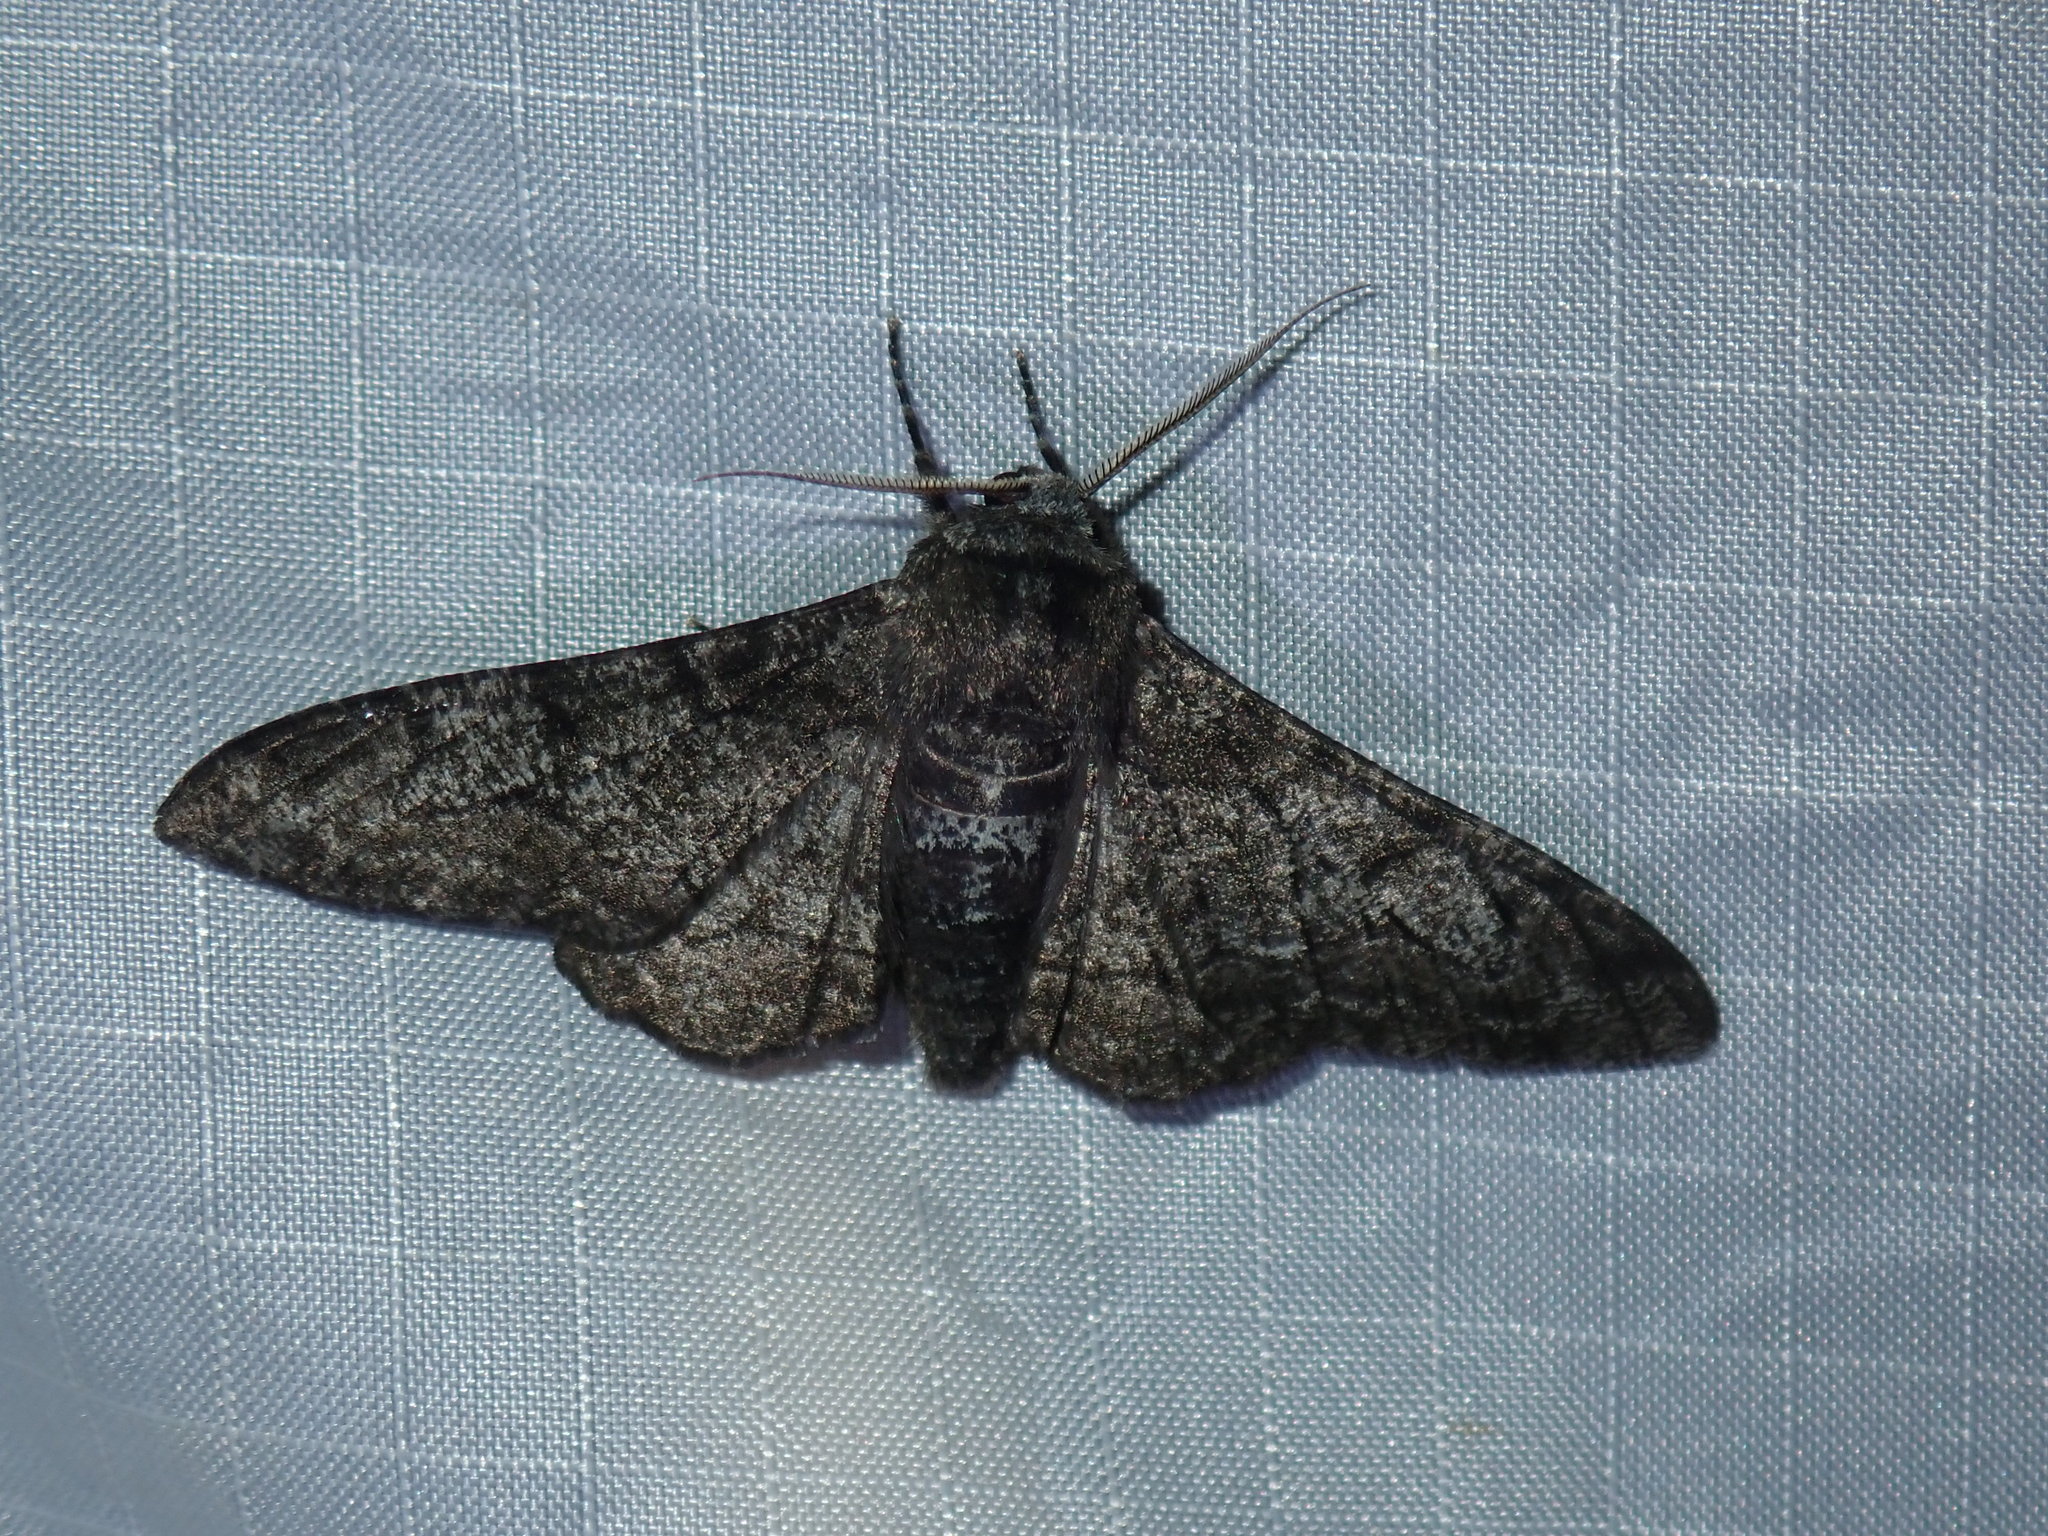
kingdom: Animalia
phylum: Arthropoda
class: Insecta
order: Lepidoptera
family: Geometridae
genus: Biston
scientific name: Biston betularia
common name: Peppered moth
